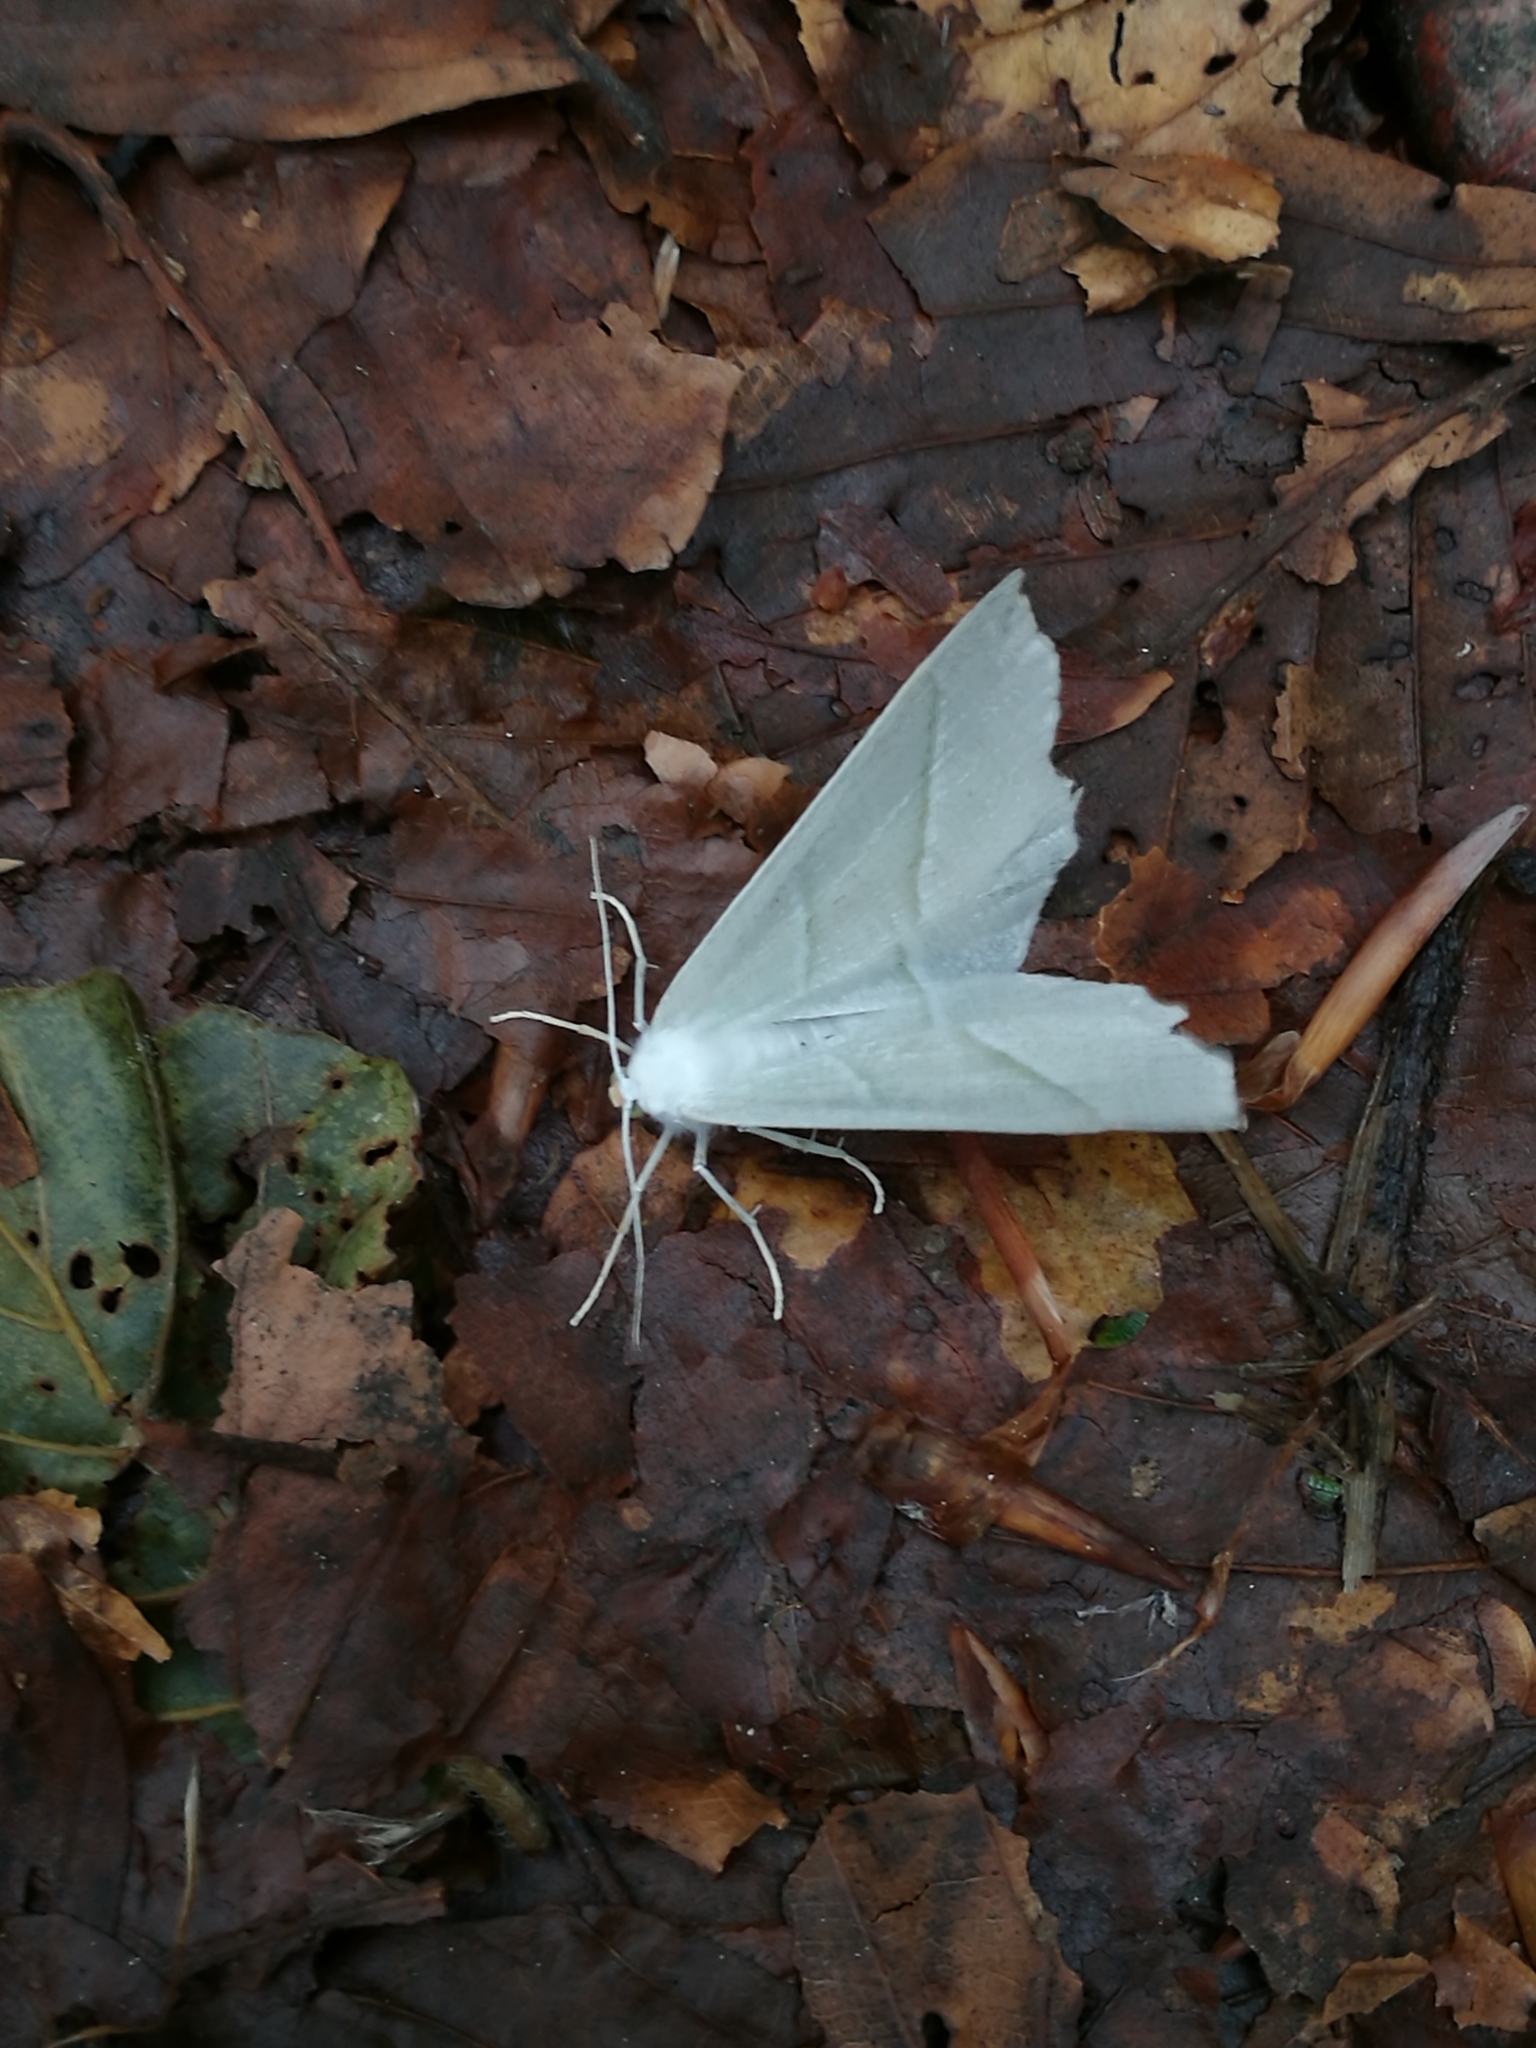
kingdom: Animalia
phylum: Arthropoda
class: Insecta
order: Lepidoptera
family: Geometridae
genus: Campaea
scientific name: Campaea margaritaria
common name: Light emerald
